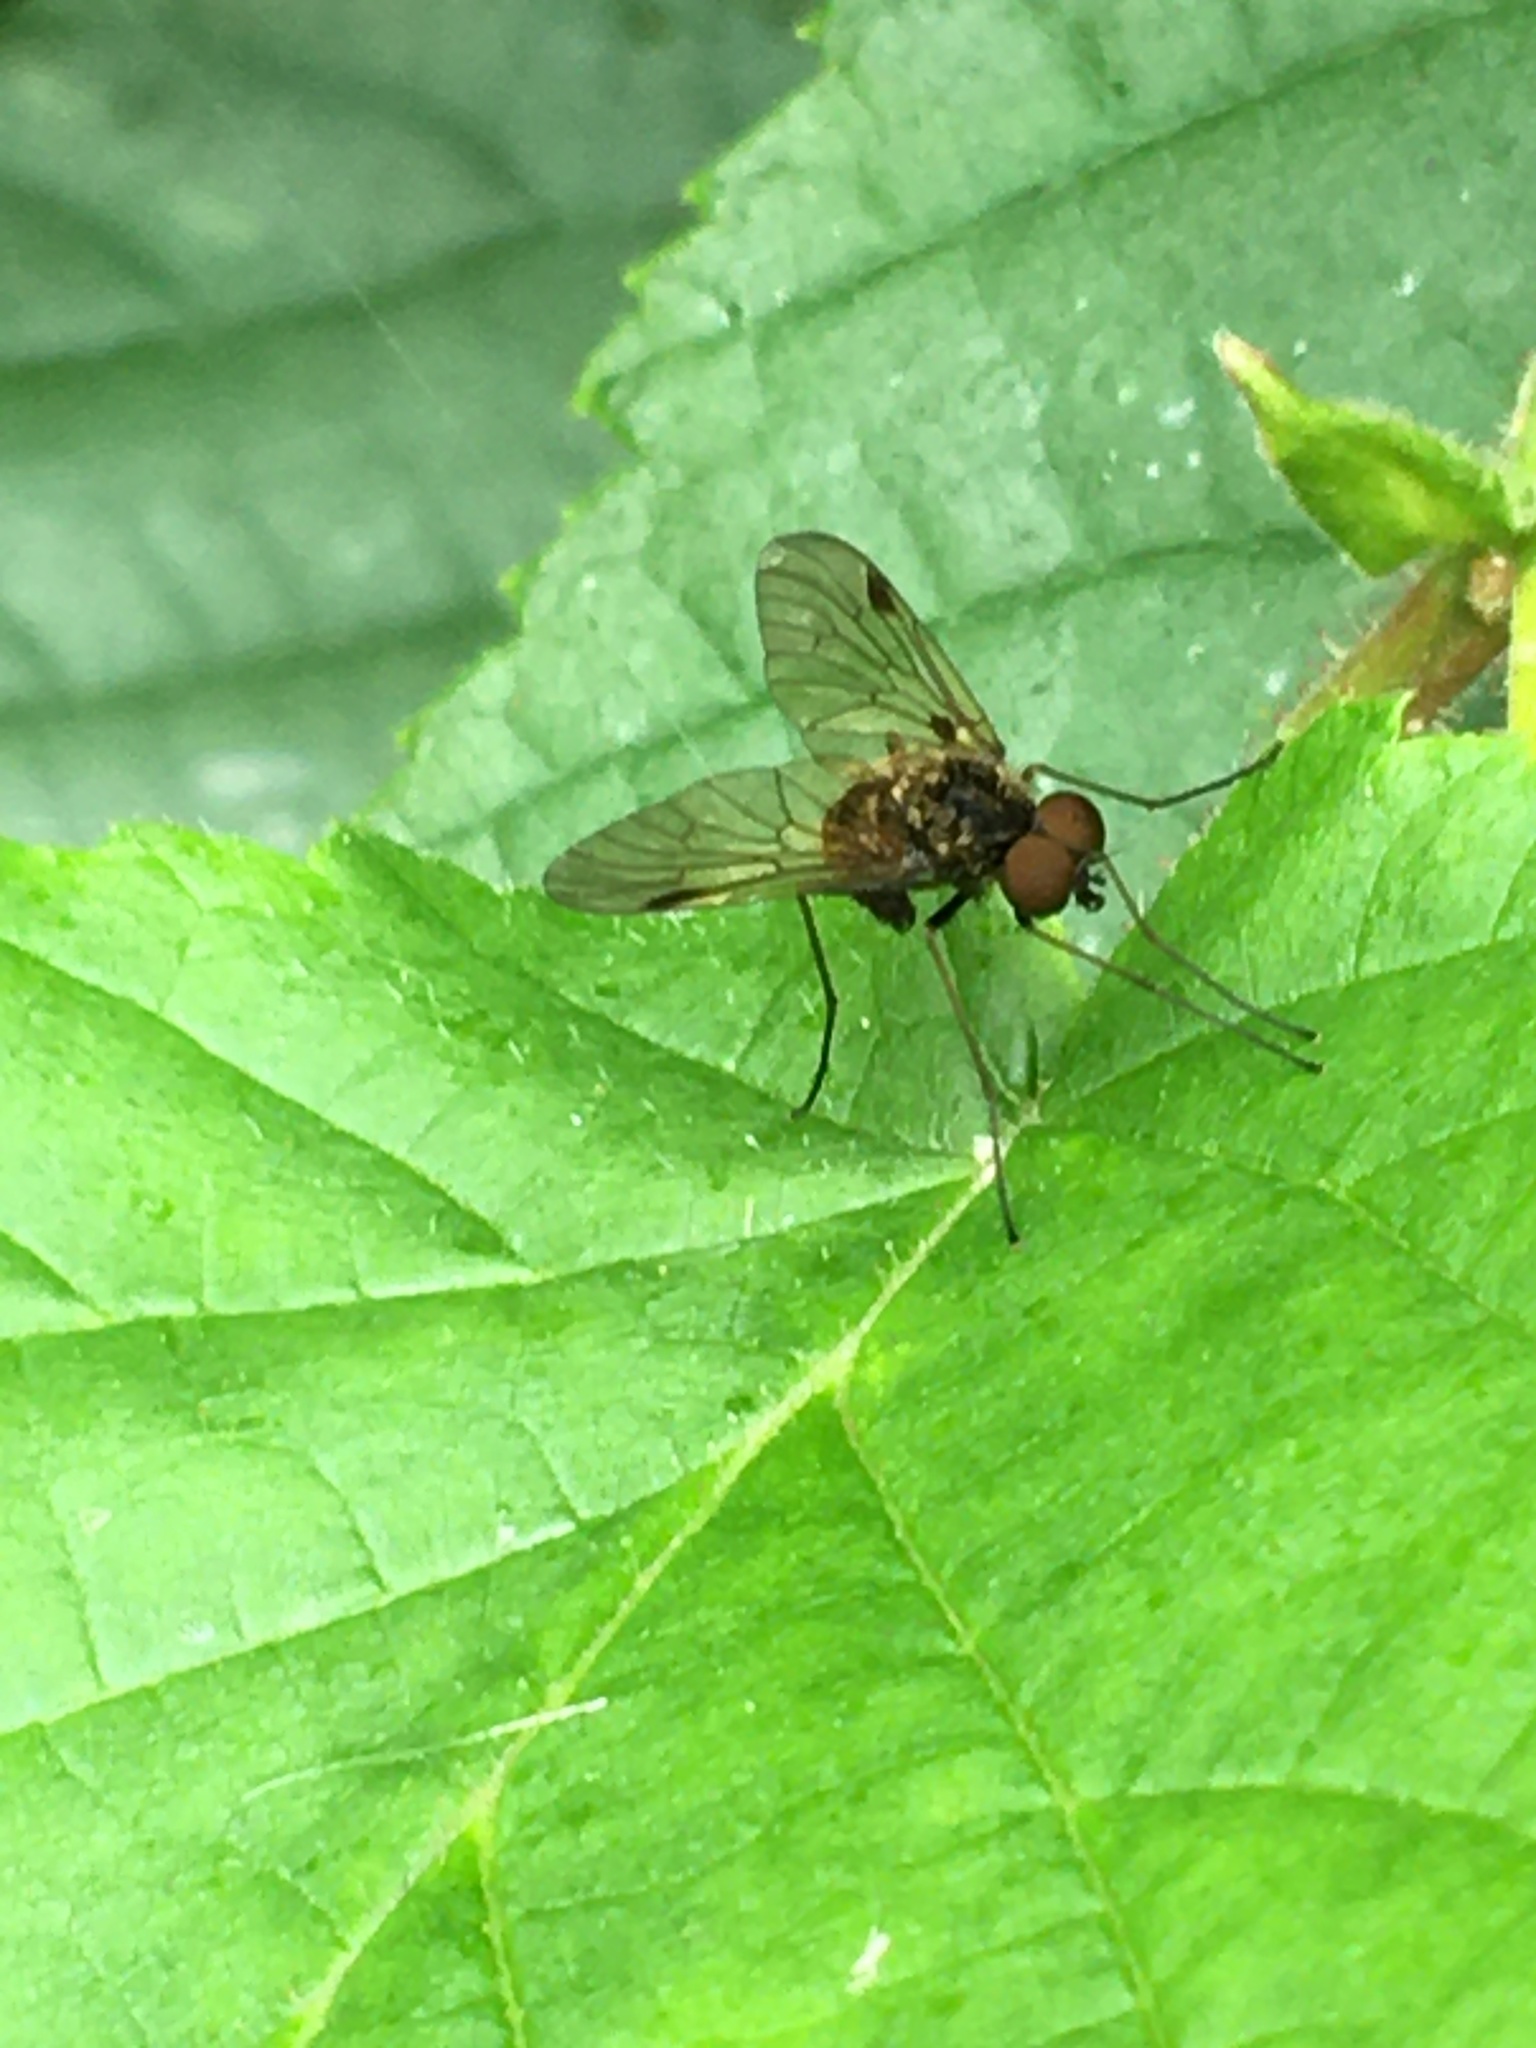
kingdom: Animalia
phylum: Arthropoda
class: Insecta
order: Diptera
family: Rhagionidae
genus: Chrysopilus
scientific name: Chrysopilus cristatus
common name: Black snipefly
